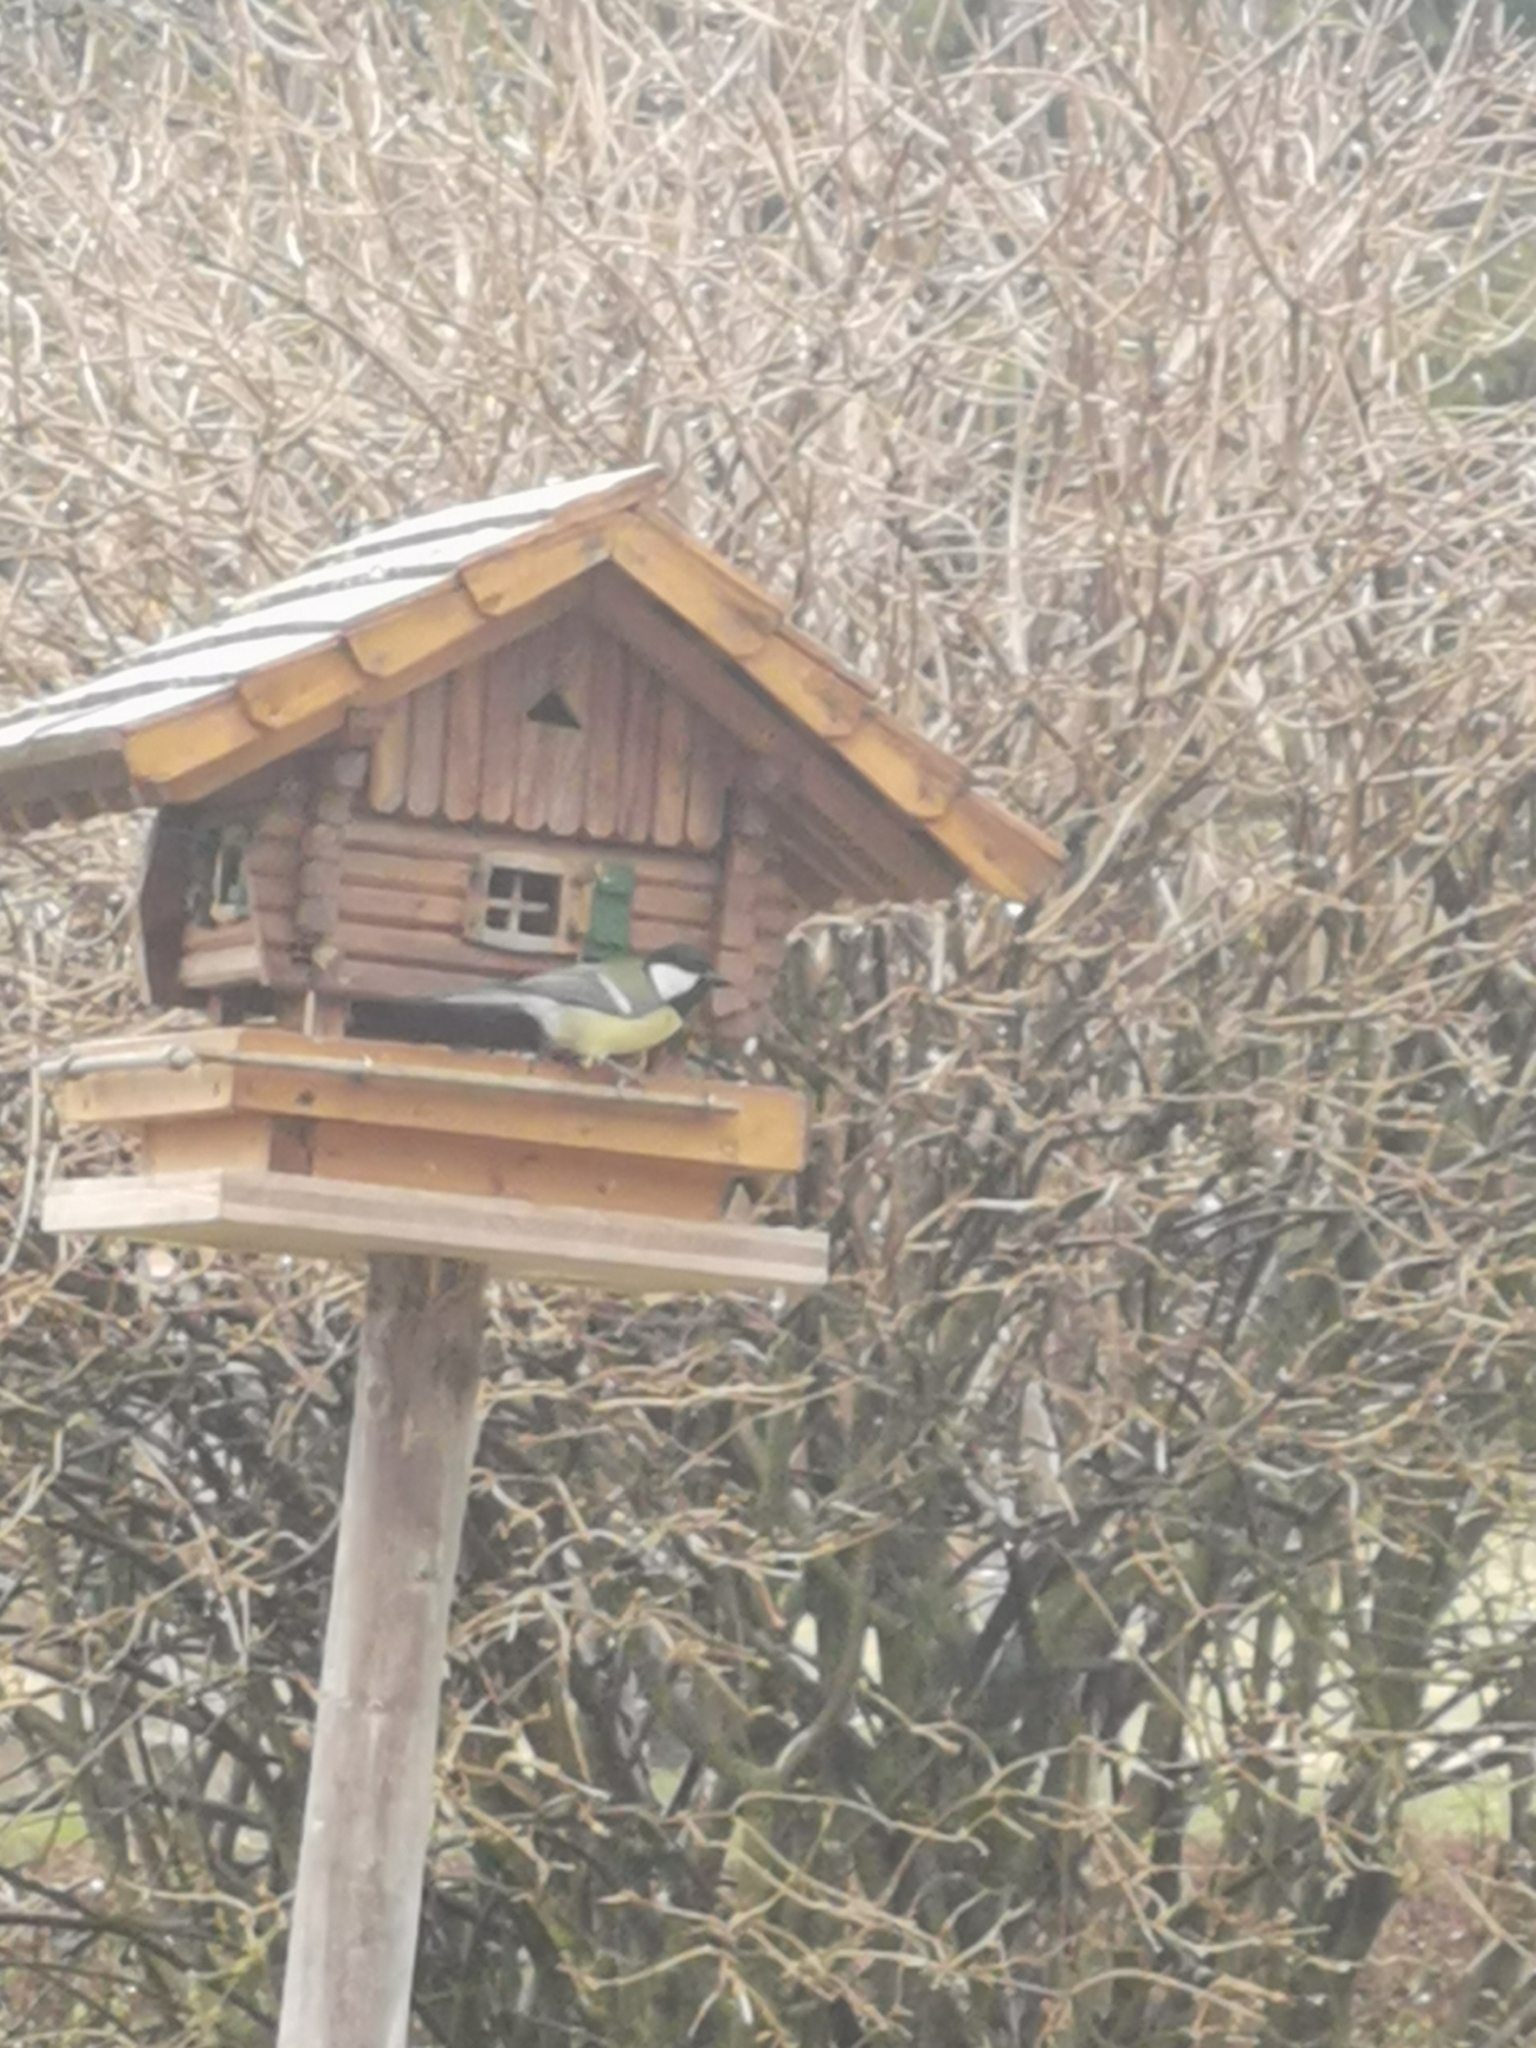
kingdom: Animalia
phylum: Chordata
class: Aves
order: Passeriformes
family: Paridae
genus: Parus
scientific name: Parus major
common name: Great tit
